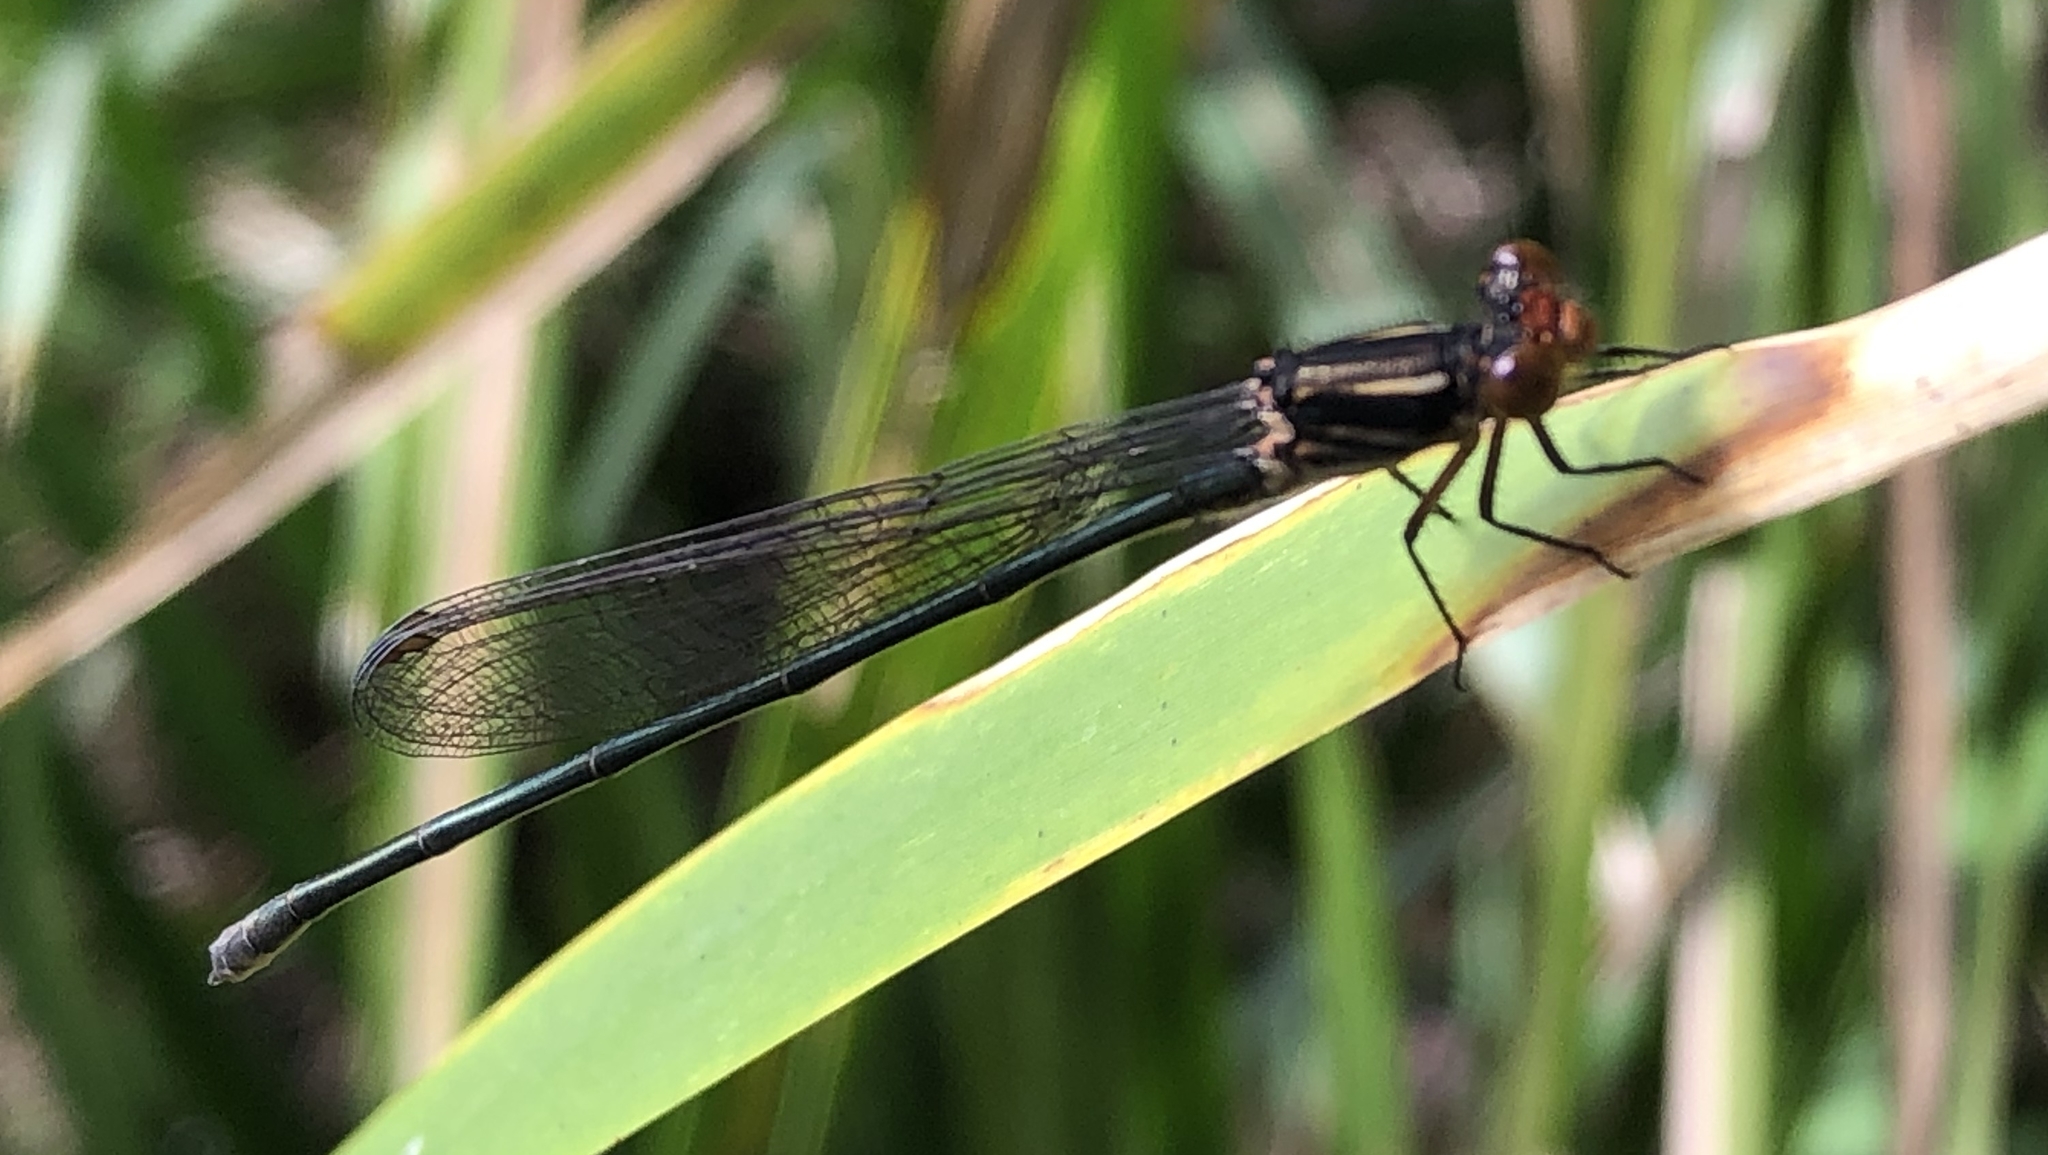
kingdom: Animalia
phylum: Arthropoda
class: Insecta
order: Odonata
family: Coenagrionidae
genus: Pseudagrion
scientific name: Pseudagrion ignifer
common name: Flame-headed riverdamsel
